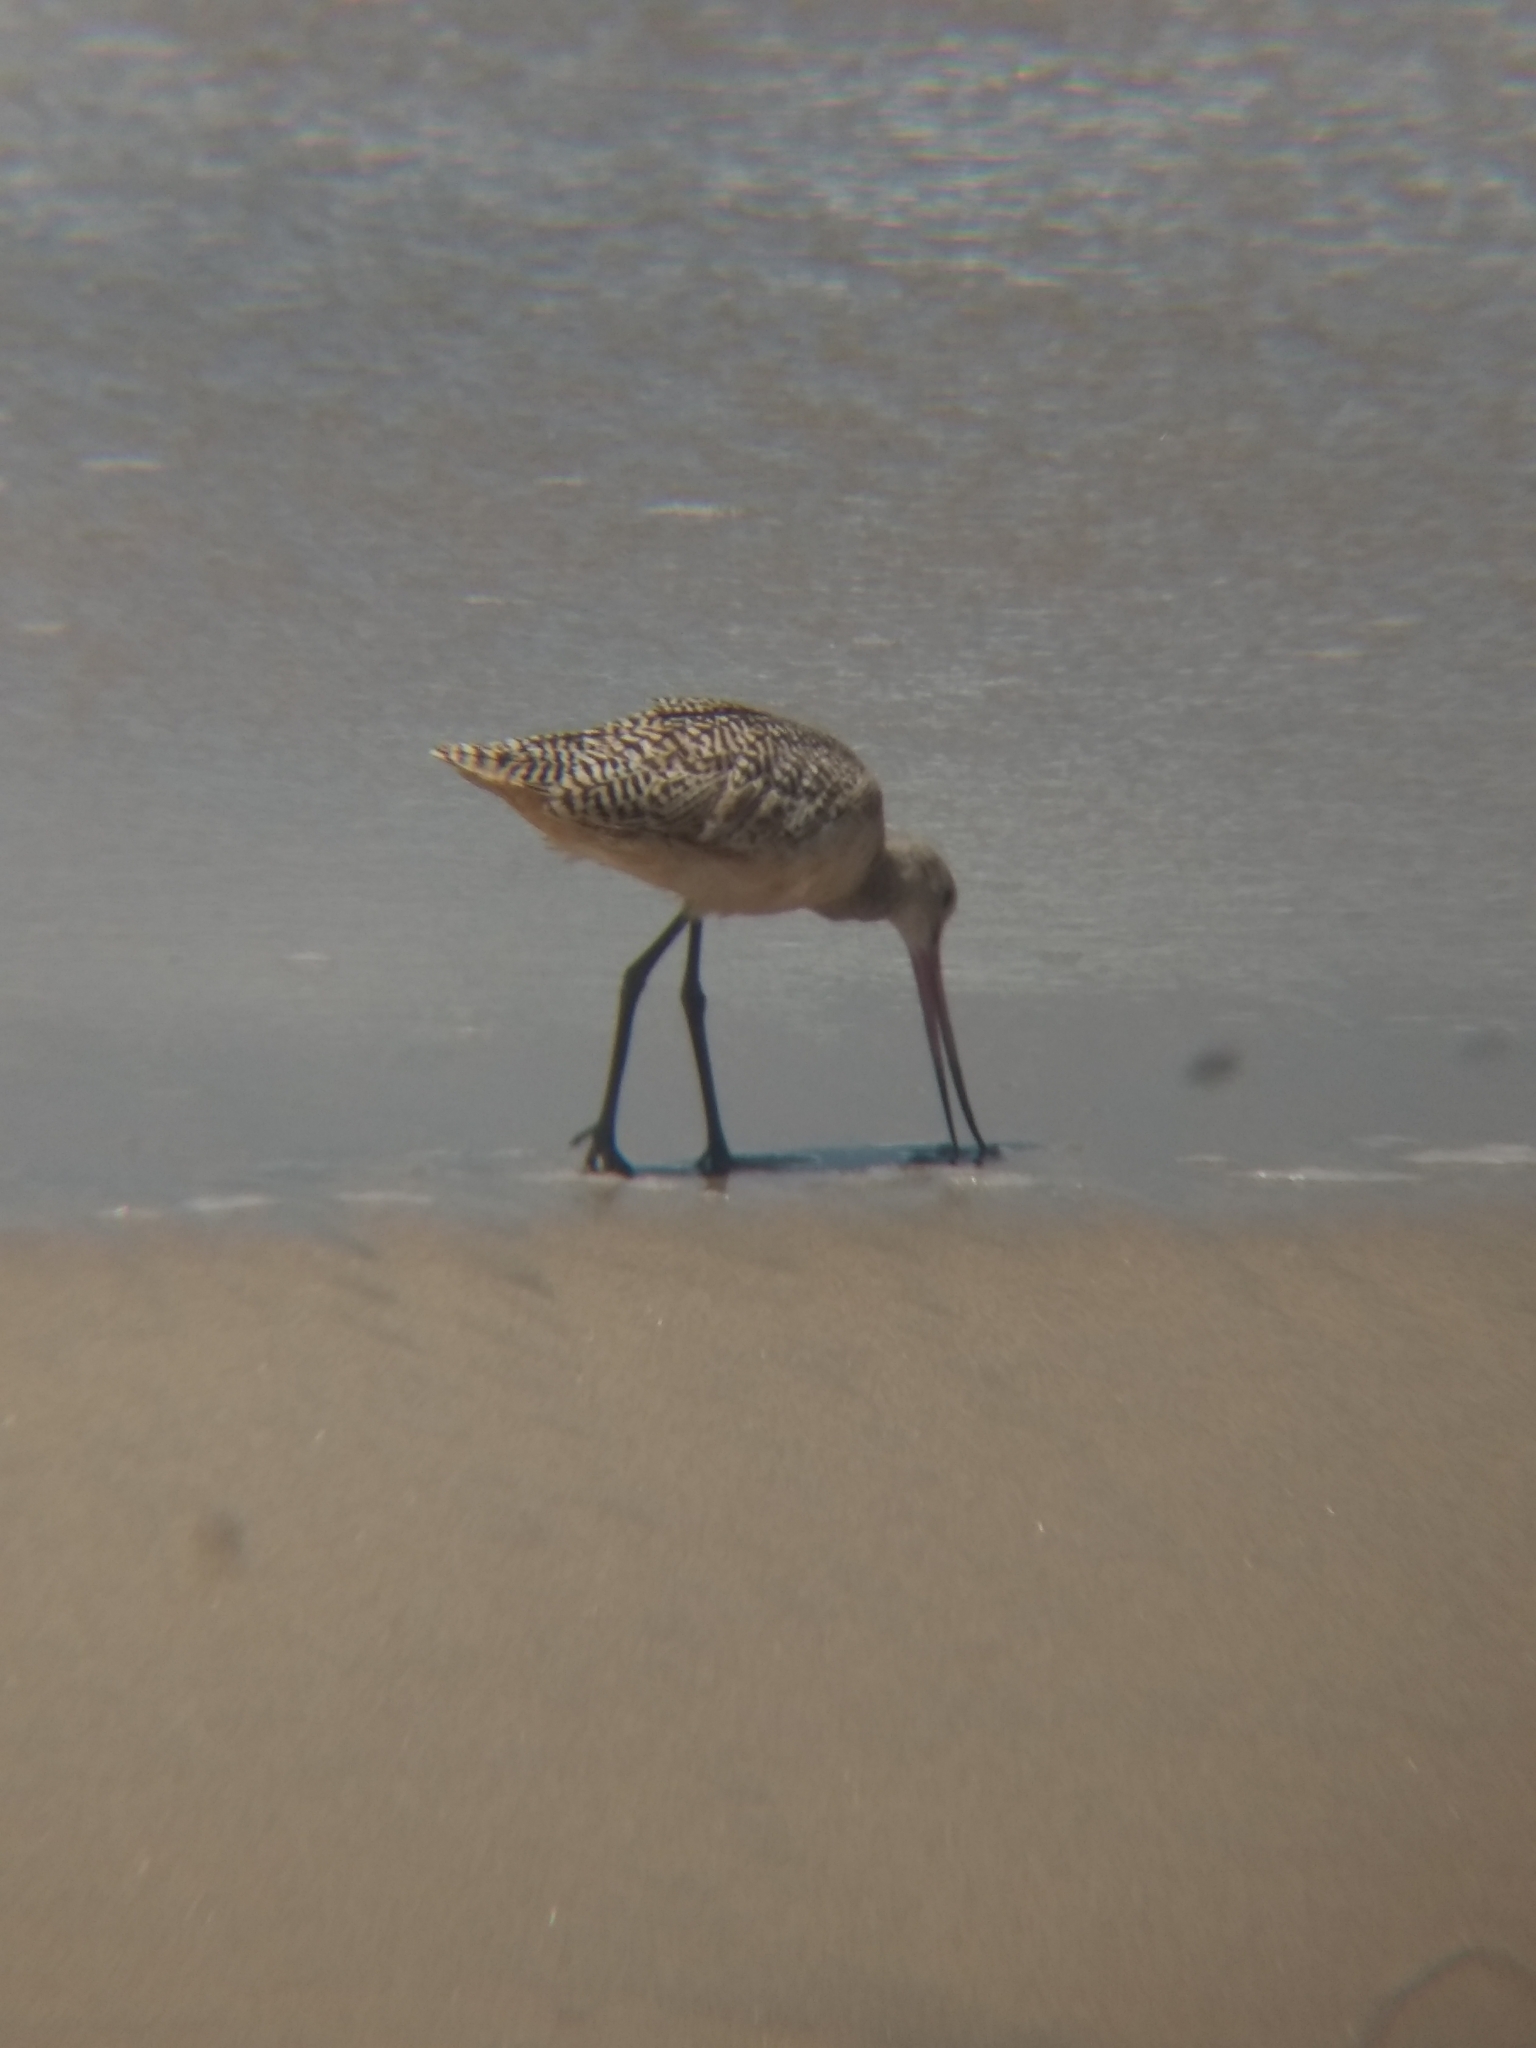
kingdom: Animalia
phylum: Chordata
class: Aves
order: Charadriiformes
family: Scolopacidae
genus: Limosa
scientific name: Limosa fedoa
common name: Marbled godwit
